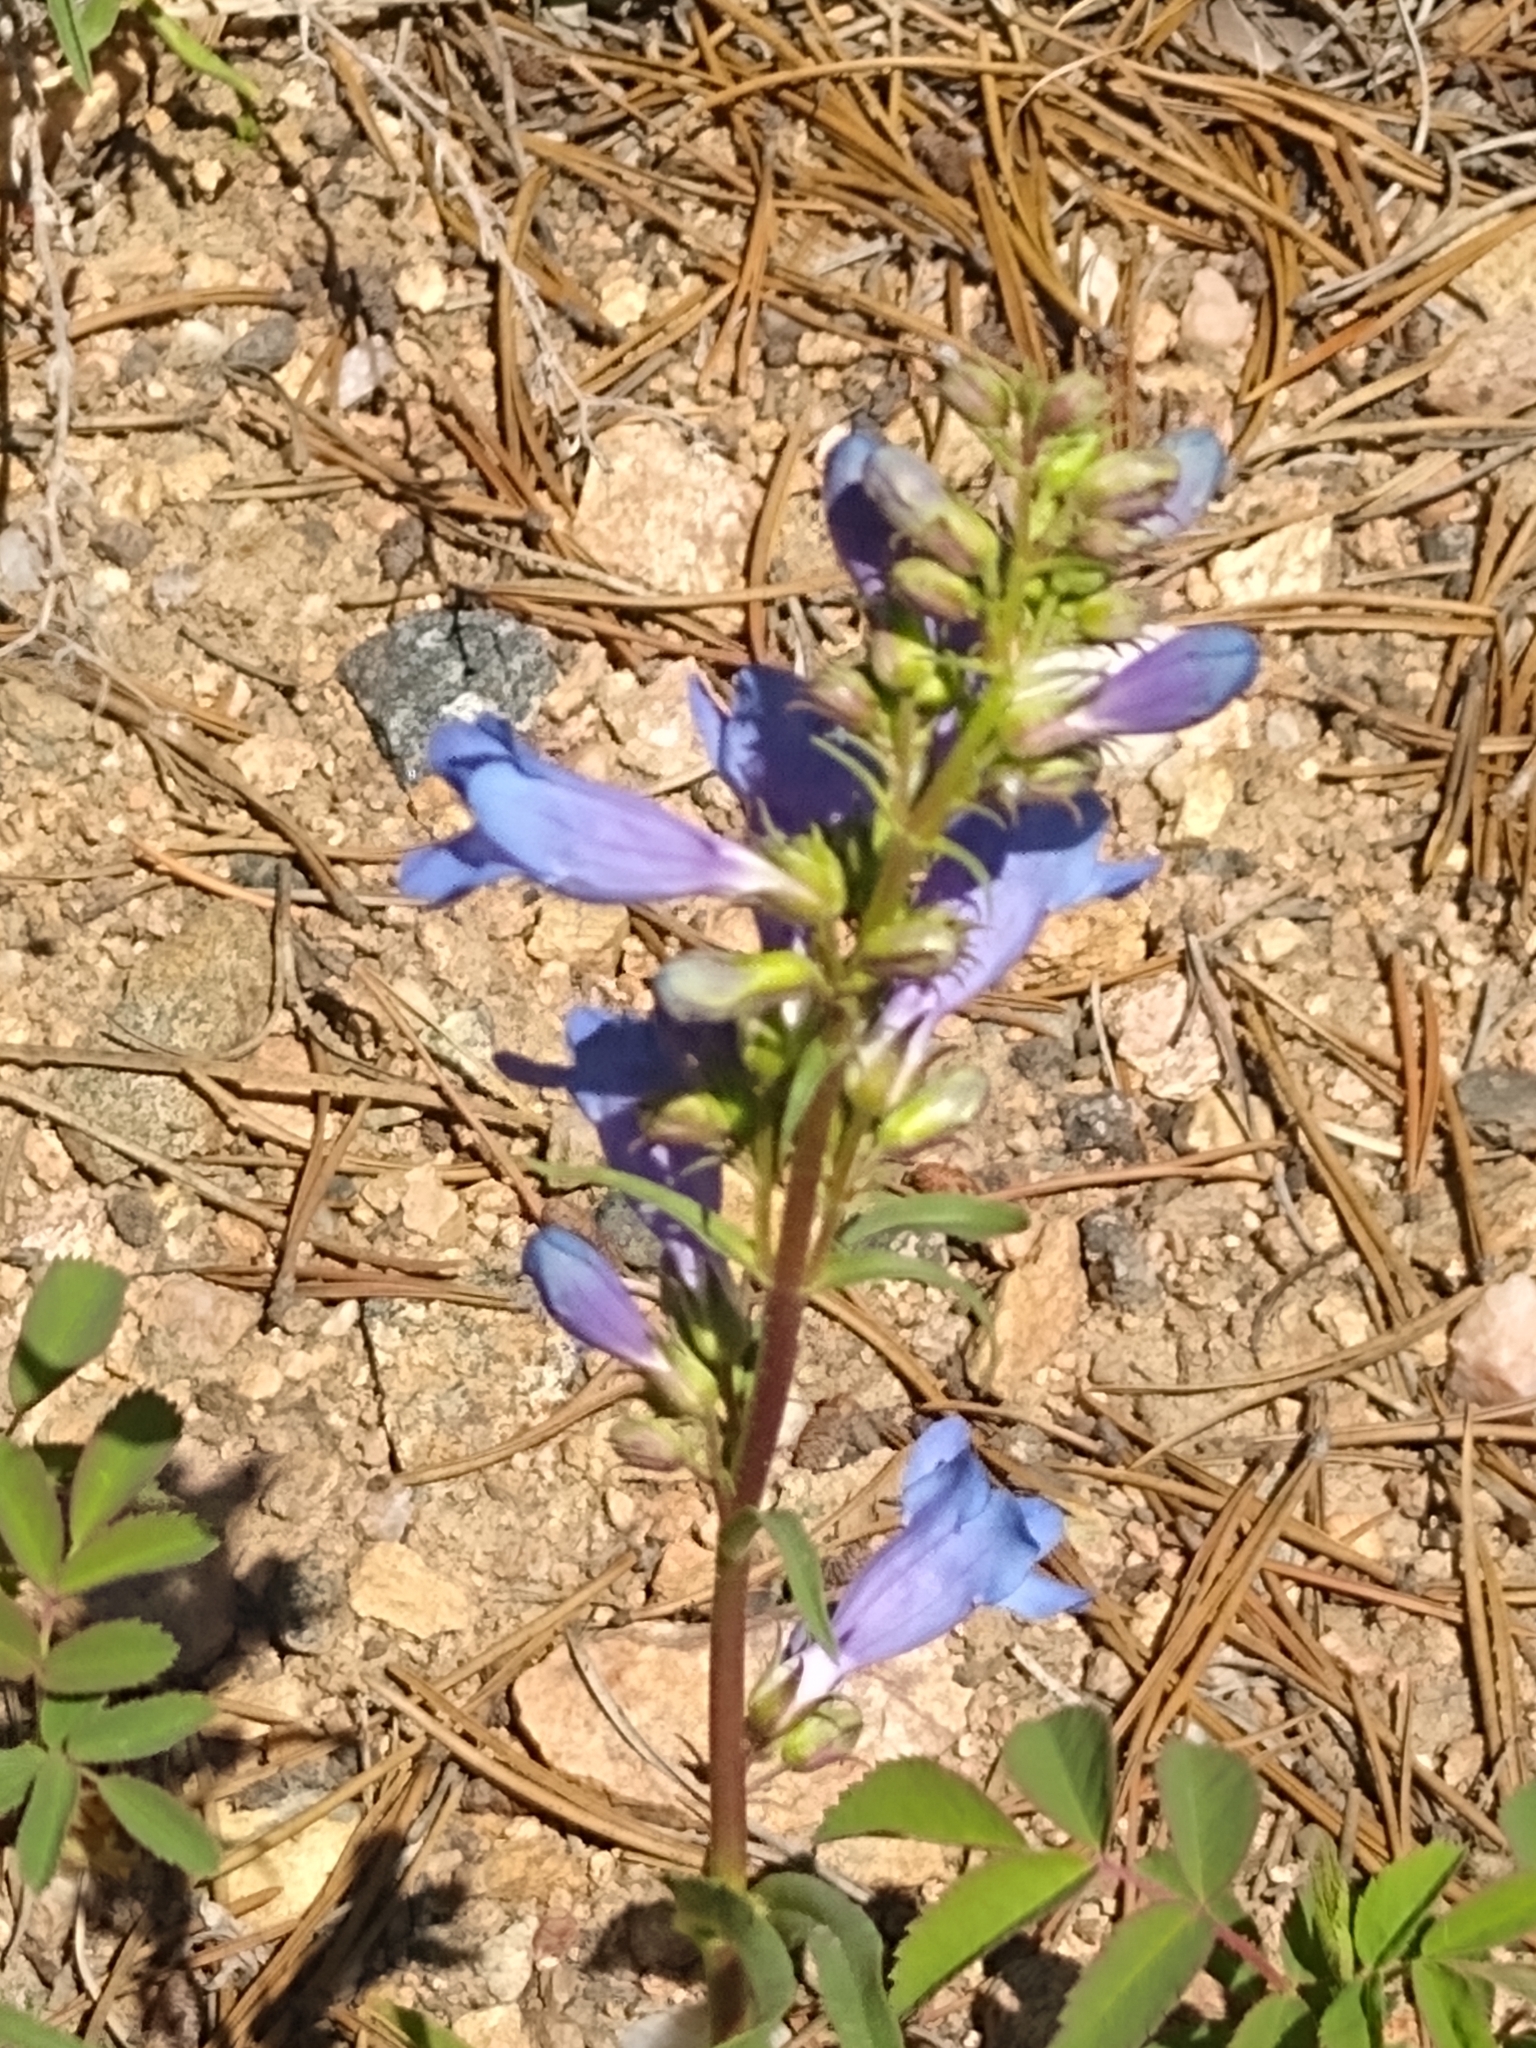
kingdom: Plantae
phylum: Tracheophyta
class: Magnoliopsida
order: Lamiales
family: Plantaginaceae
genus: Penstemon
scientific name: Penstemon glaber
